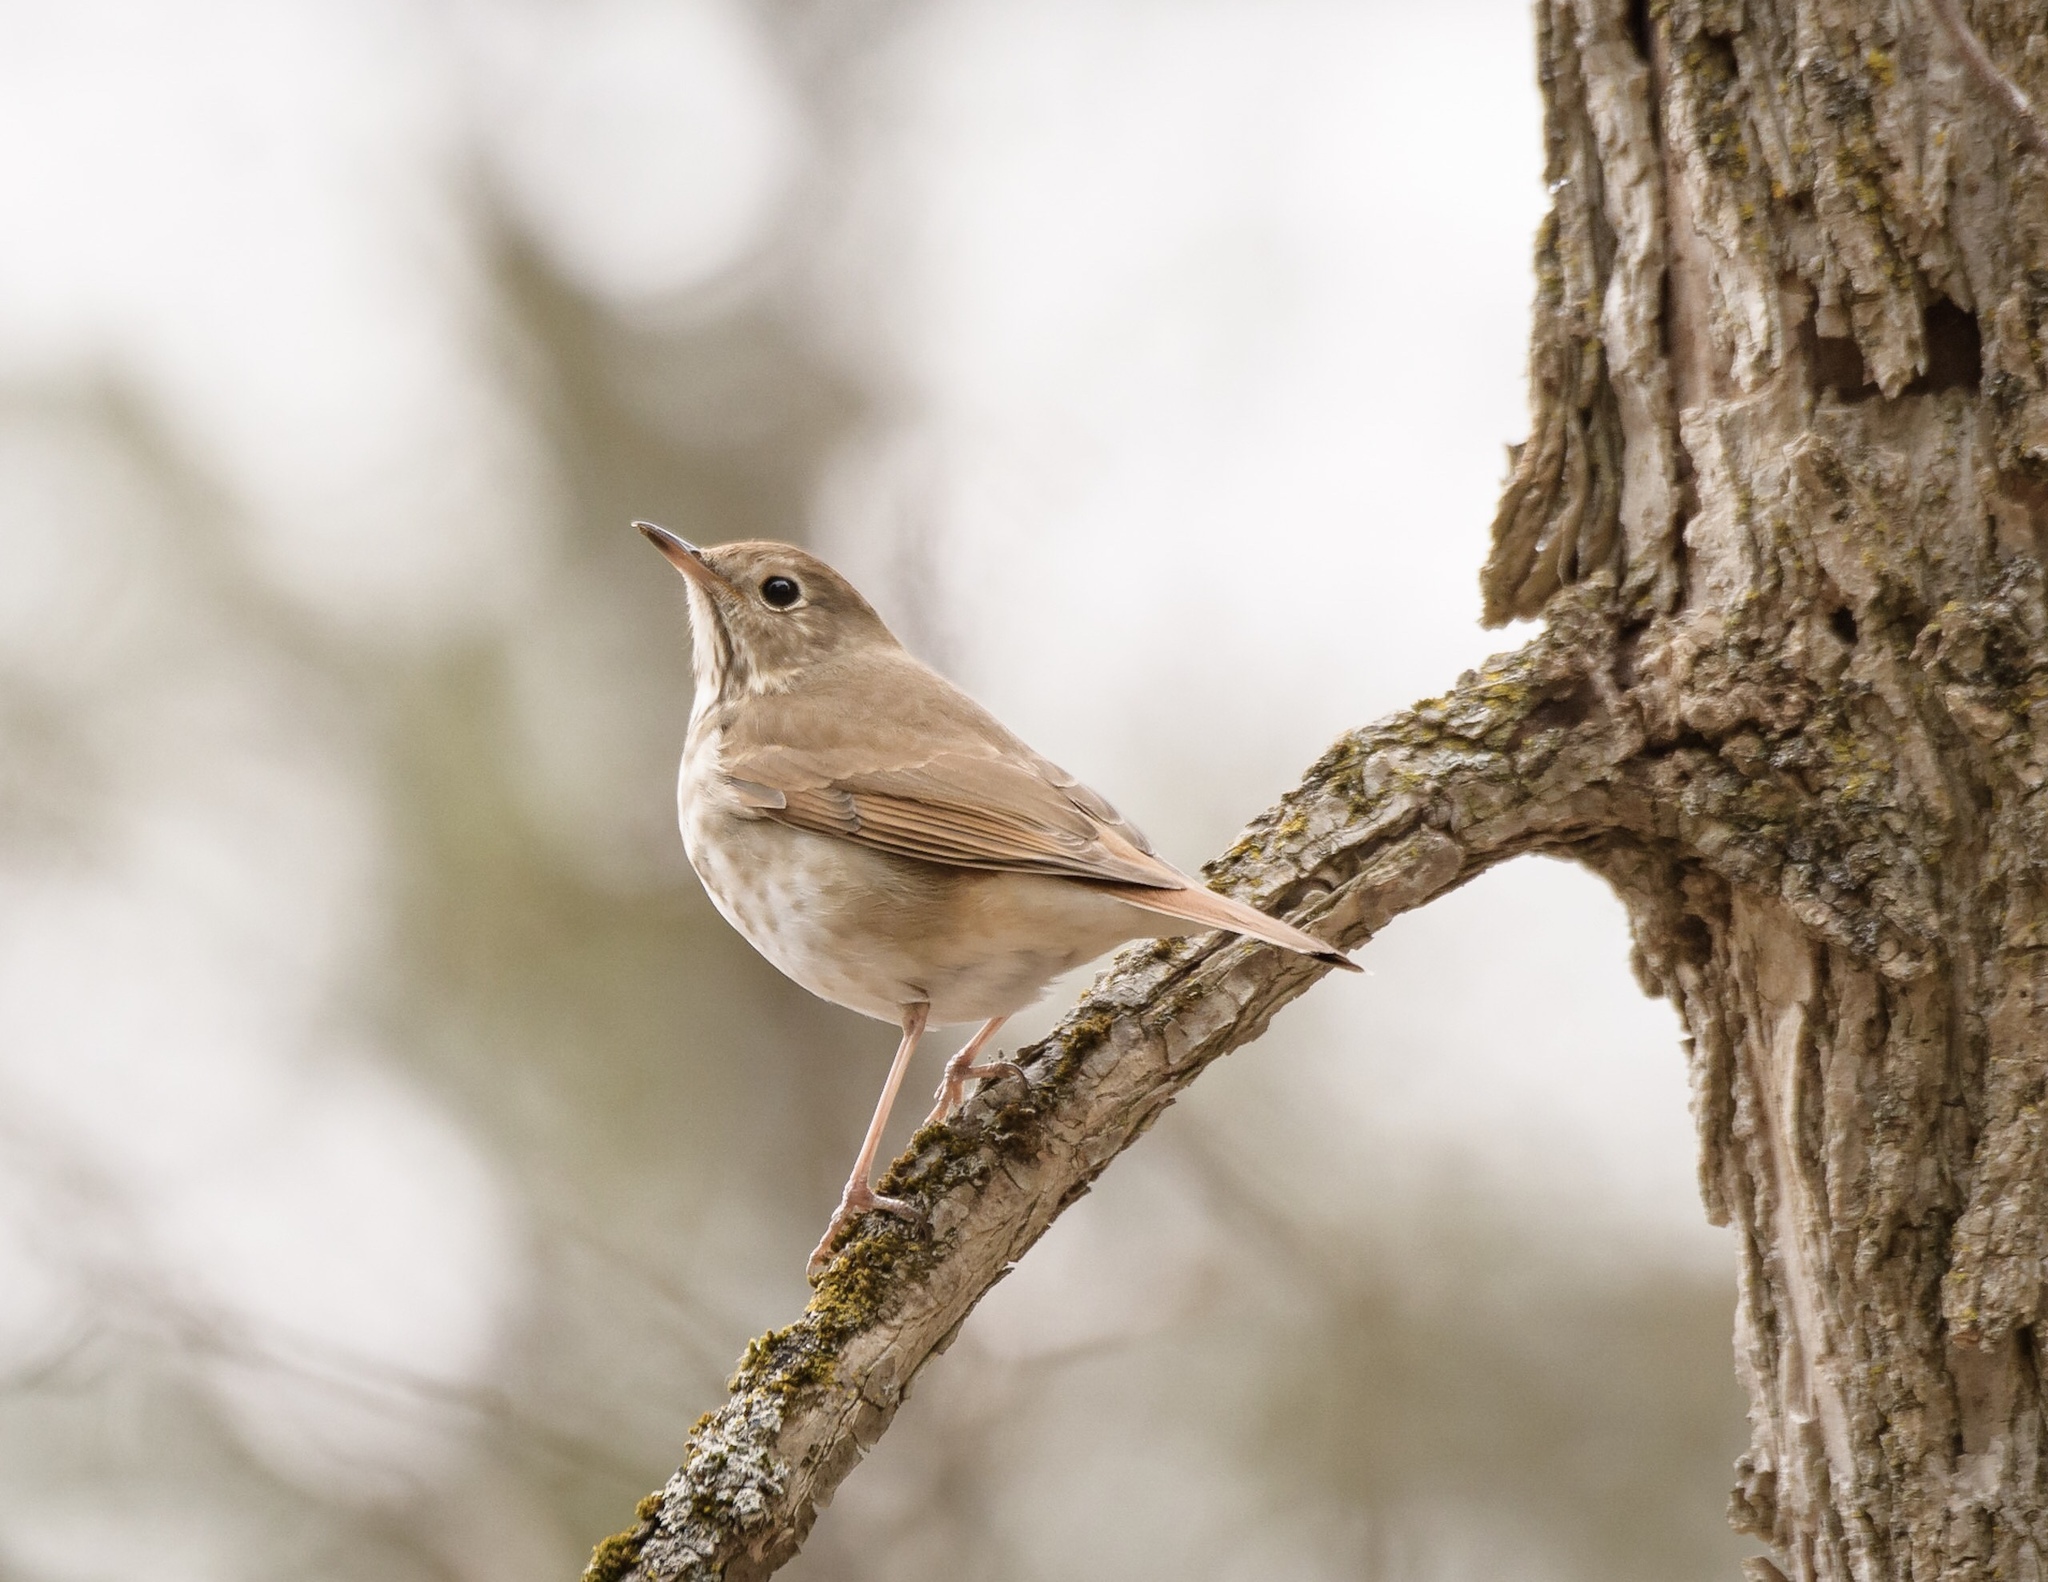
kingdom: Animalia
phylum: Chordata
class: Aves
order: Passeriformes
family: Turdidae
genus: Catharus
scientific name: Catharus guttatus
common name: Hermit thrush
